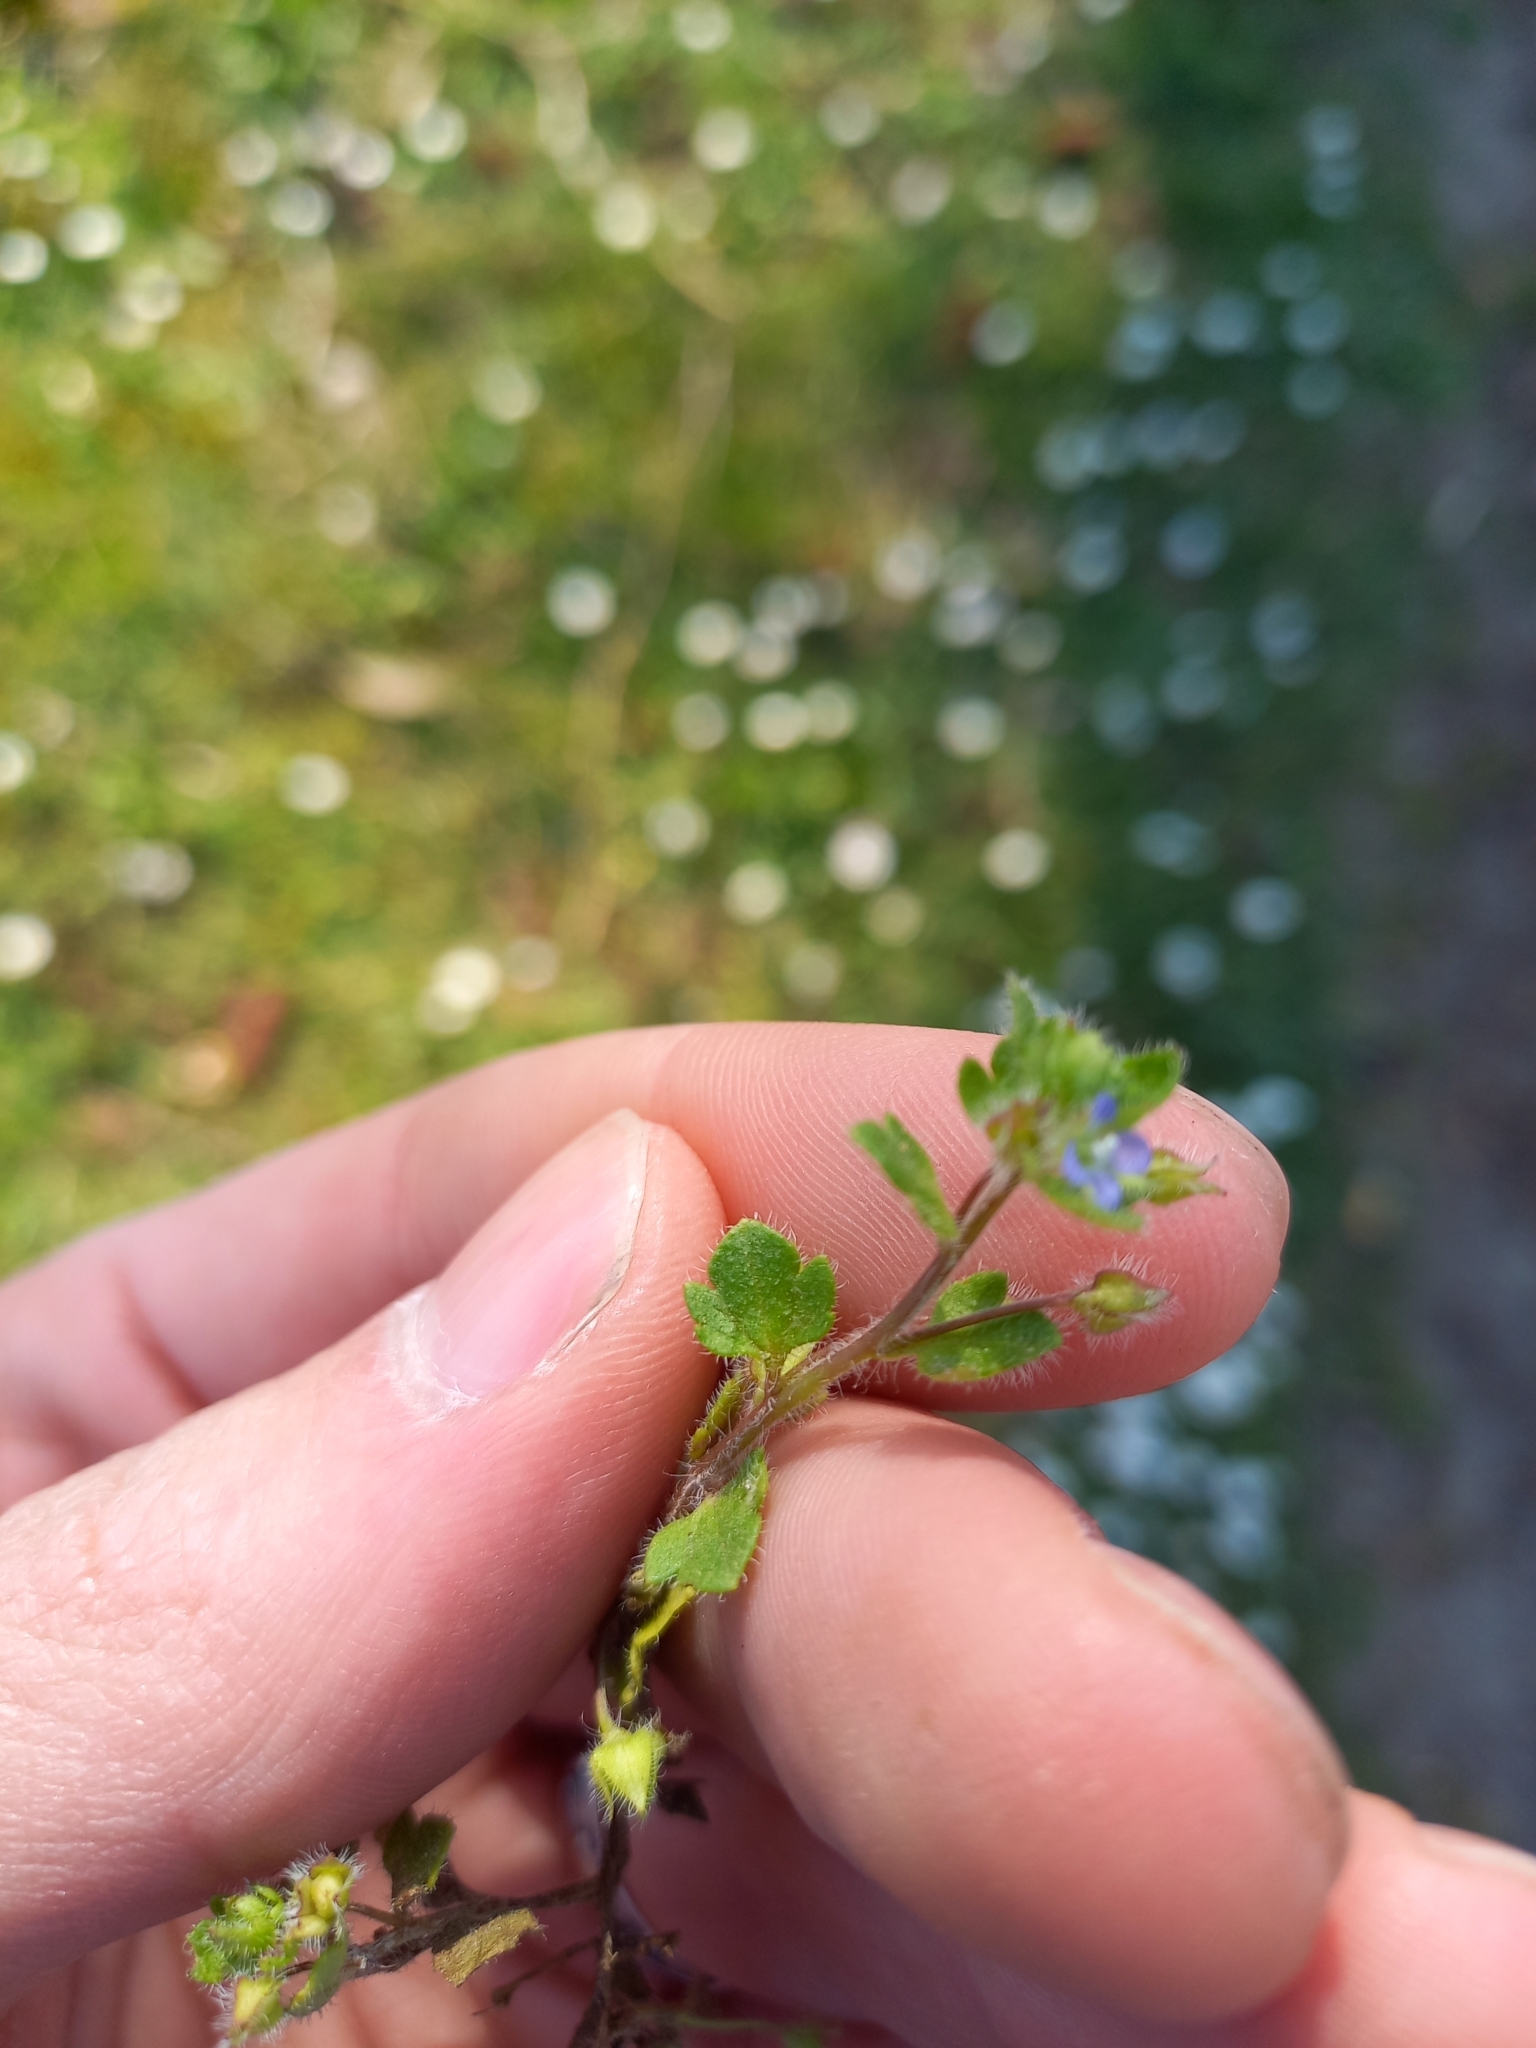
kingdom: Plantae
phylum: Tracheophyta
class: Magnoliopsida
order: Lamiales
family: Plantaginaceae
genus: Veronica
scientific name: Veronica hederifolia
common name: Ivy-leaved speedwell
